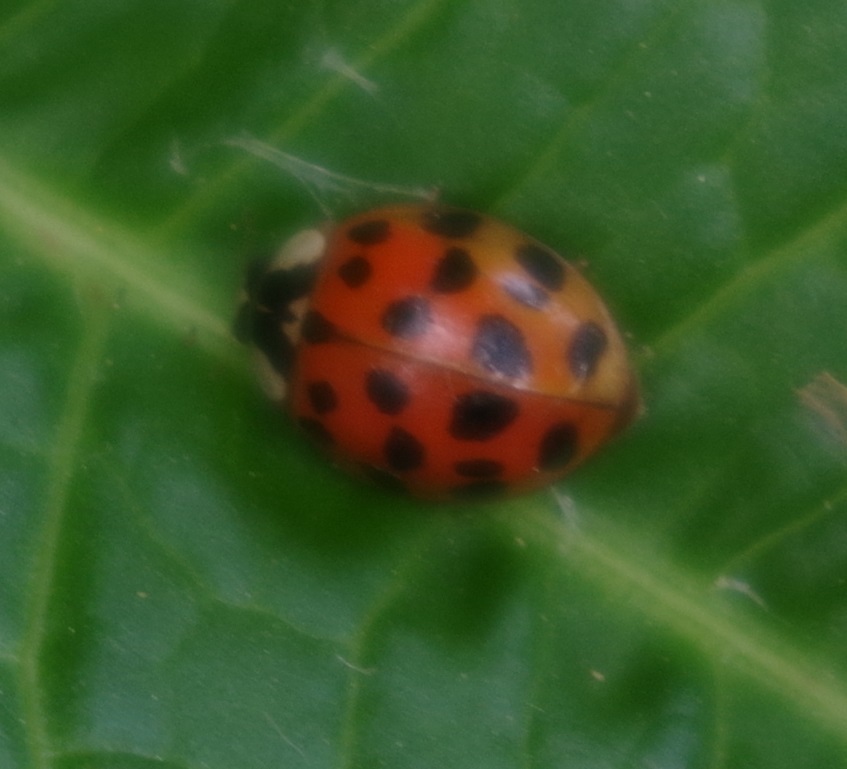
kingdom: Animalia
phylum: Arthropoda
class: Insecta
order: Coleoptera
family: Coccinellidae
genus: Harmonia
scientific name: Harmonia axyridis
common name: Harlequin ladybird
